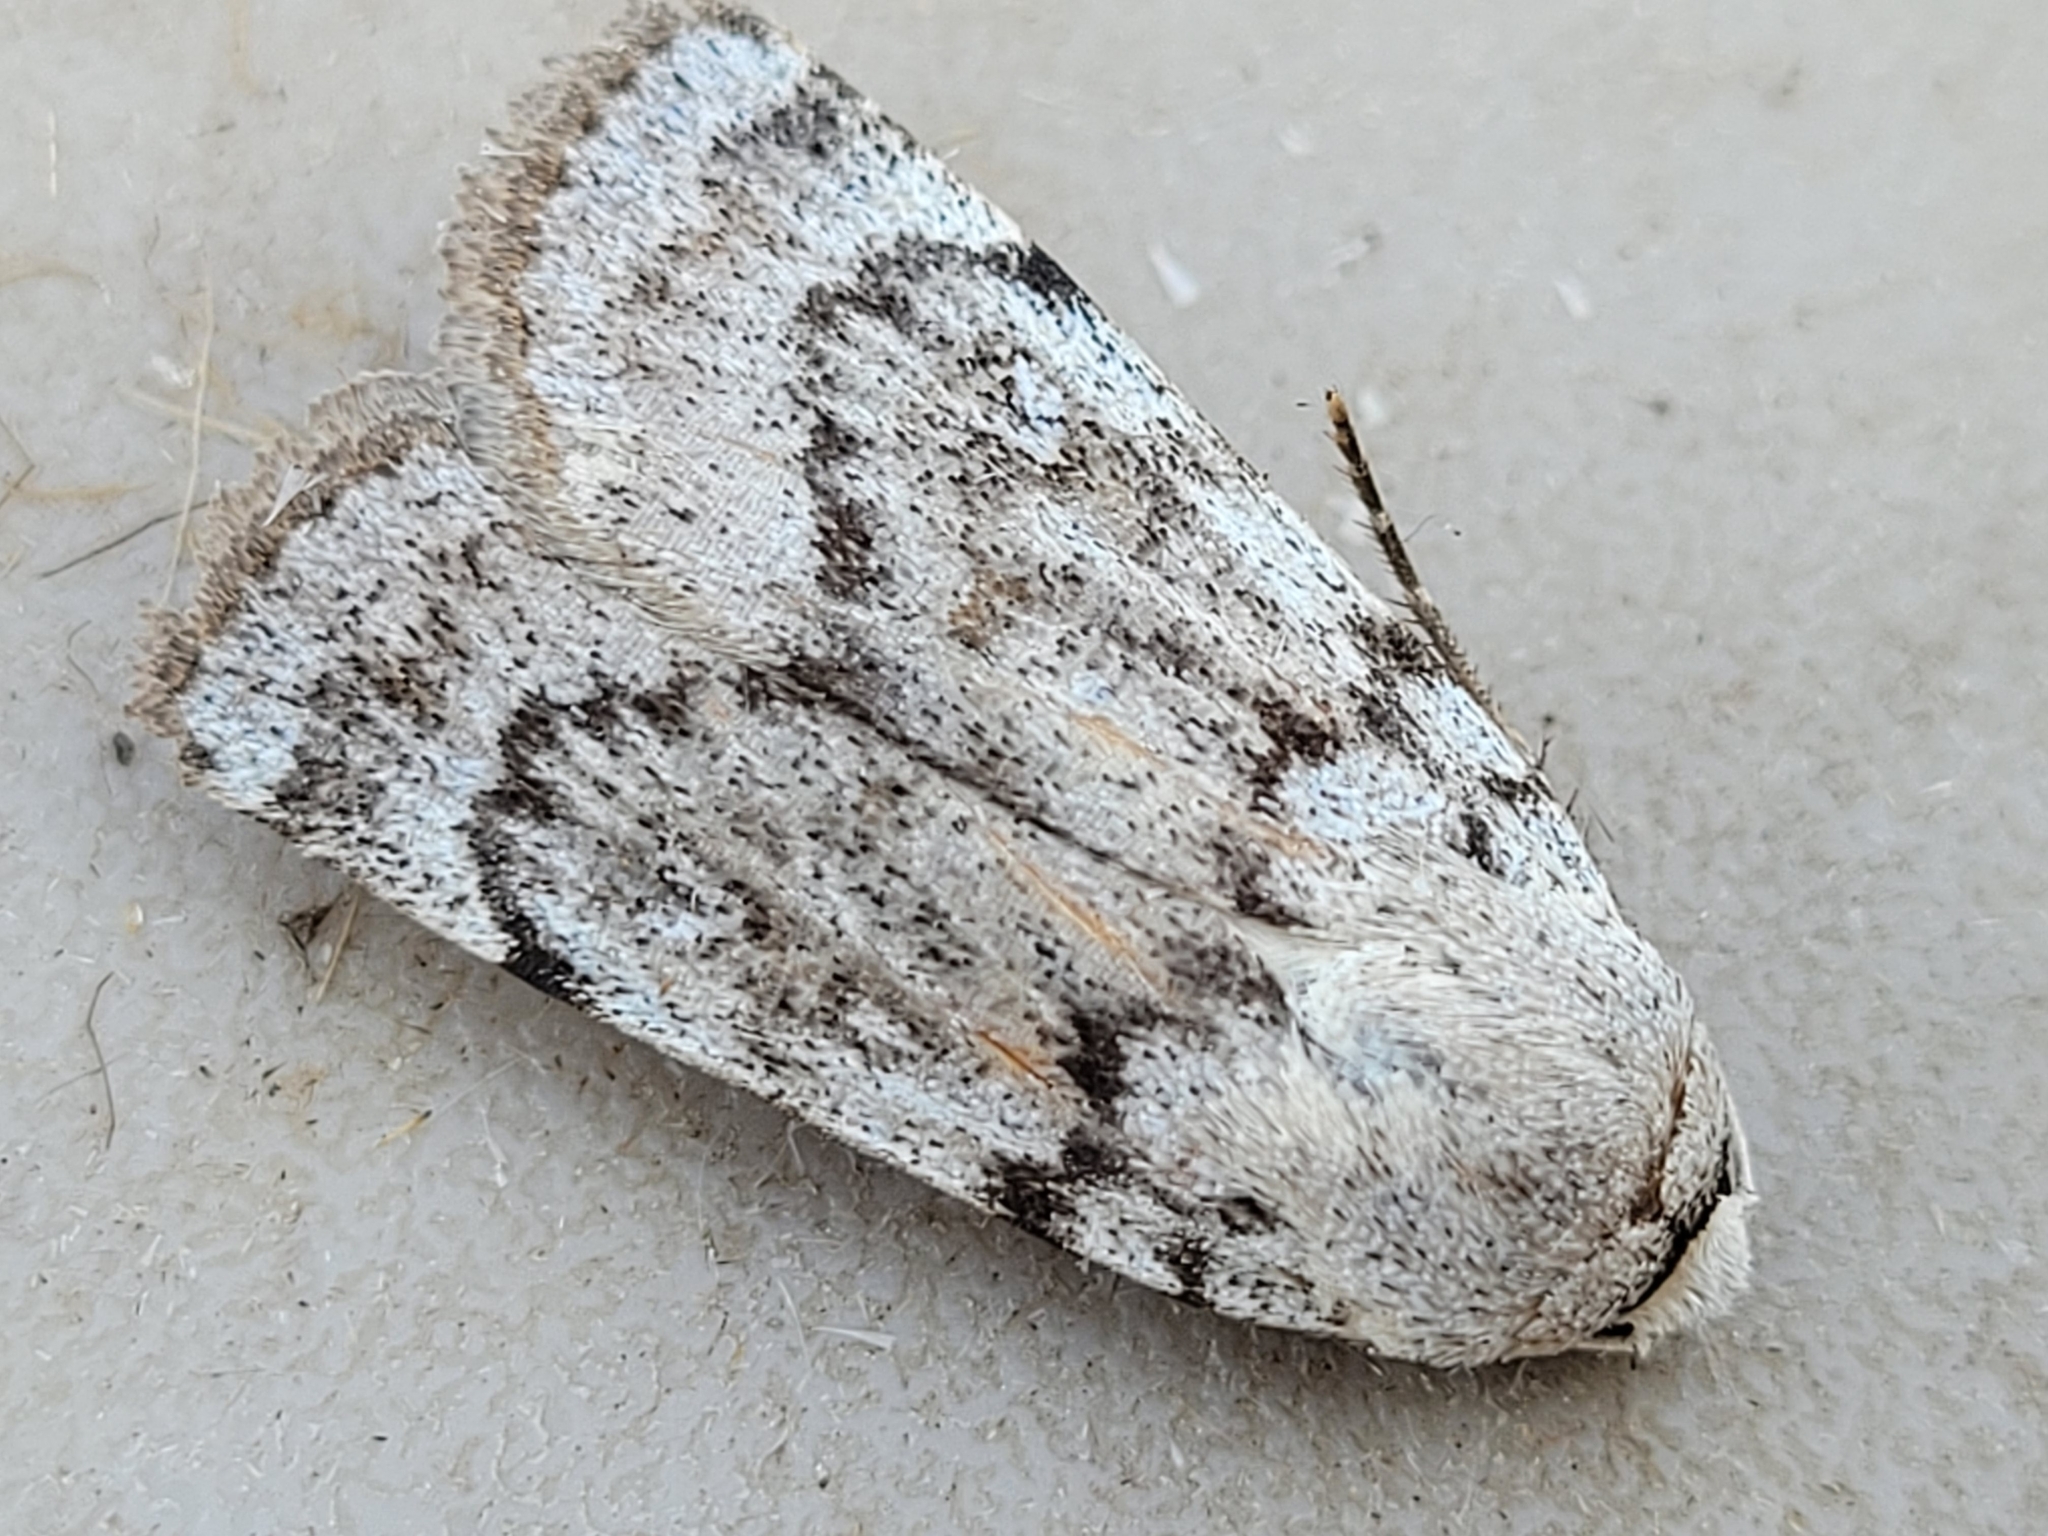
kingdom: Animalia
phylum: Arthropoda
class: Insecta
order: Lepidoptera
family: Noctuidae
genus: Anicla
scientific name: Anicla tepperi
